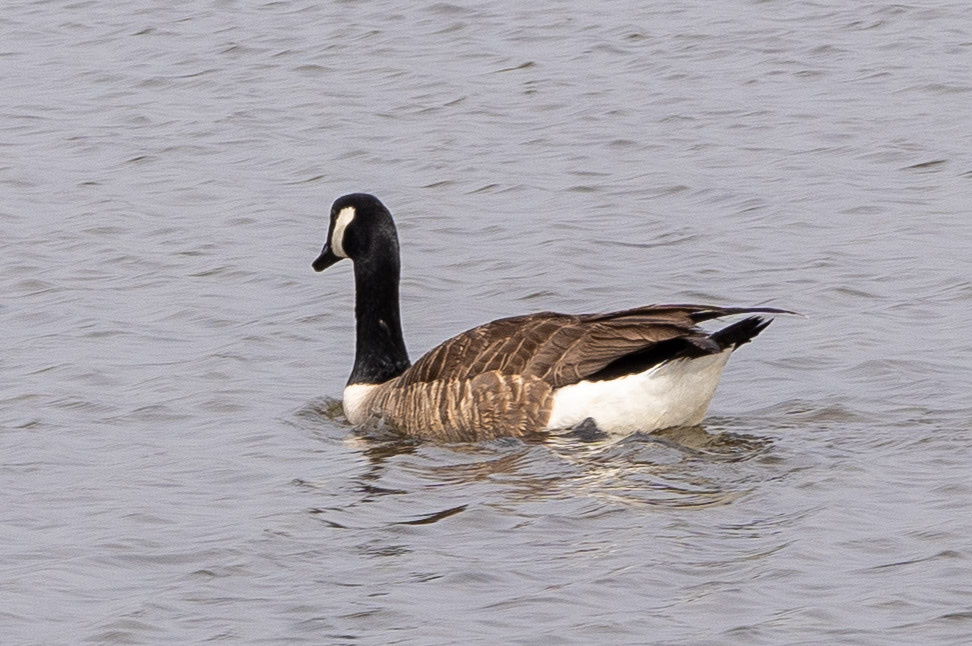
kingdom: Animalia
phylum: Chordata
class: Aves
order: Anseriformes
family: Anatidae
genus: Branta
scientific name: Branta canadensis
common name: Canada goose
